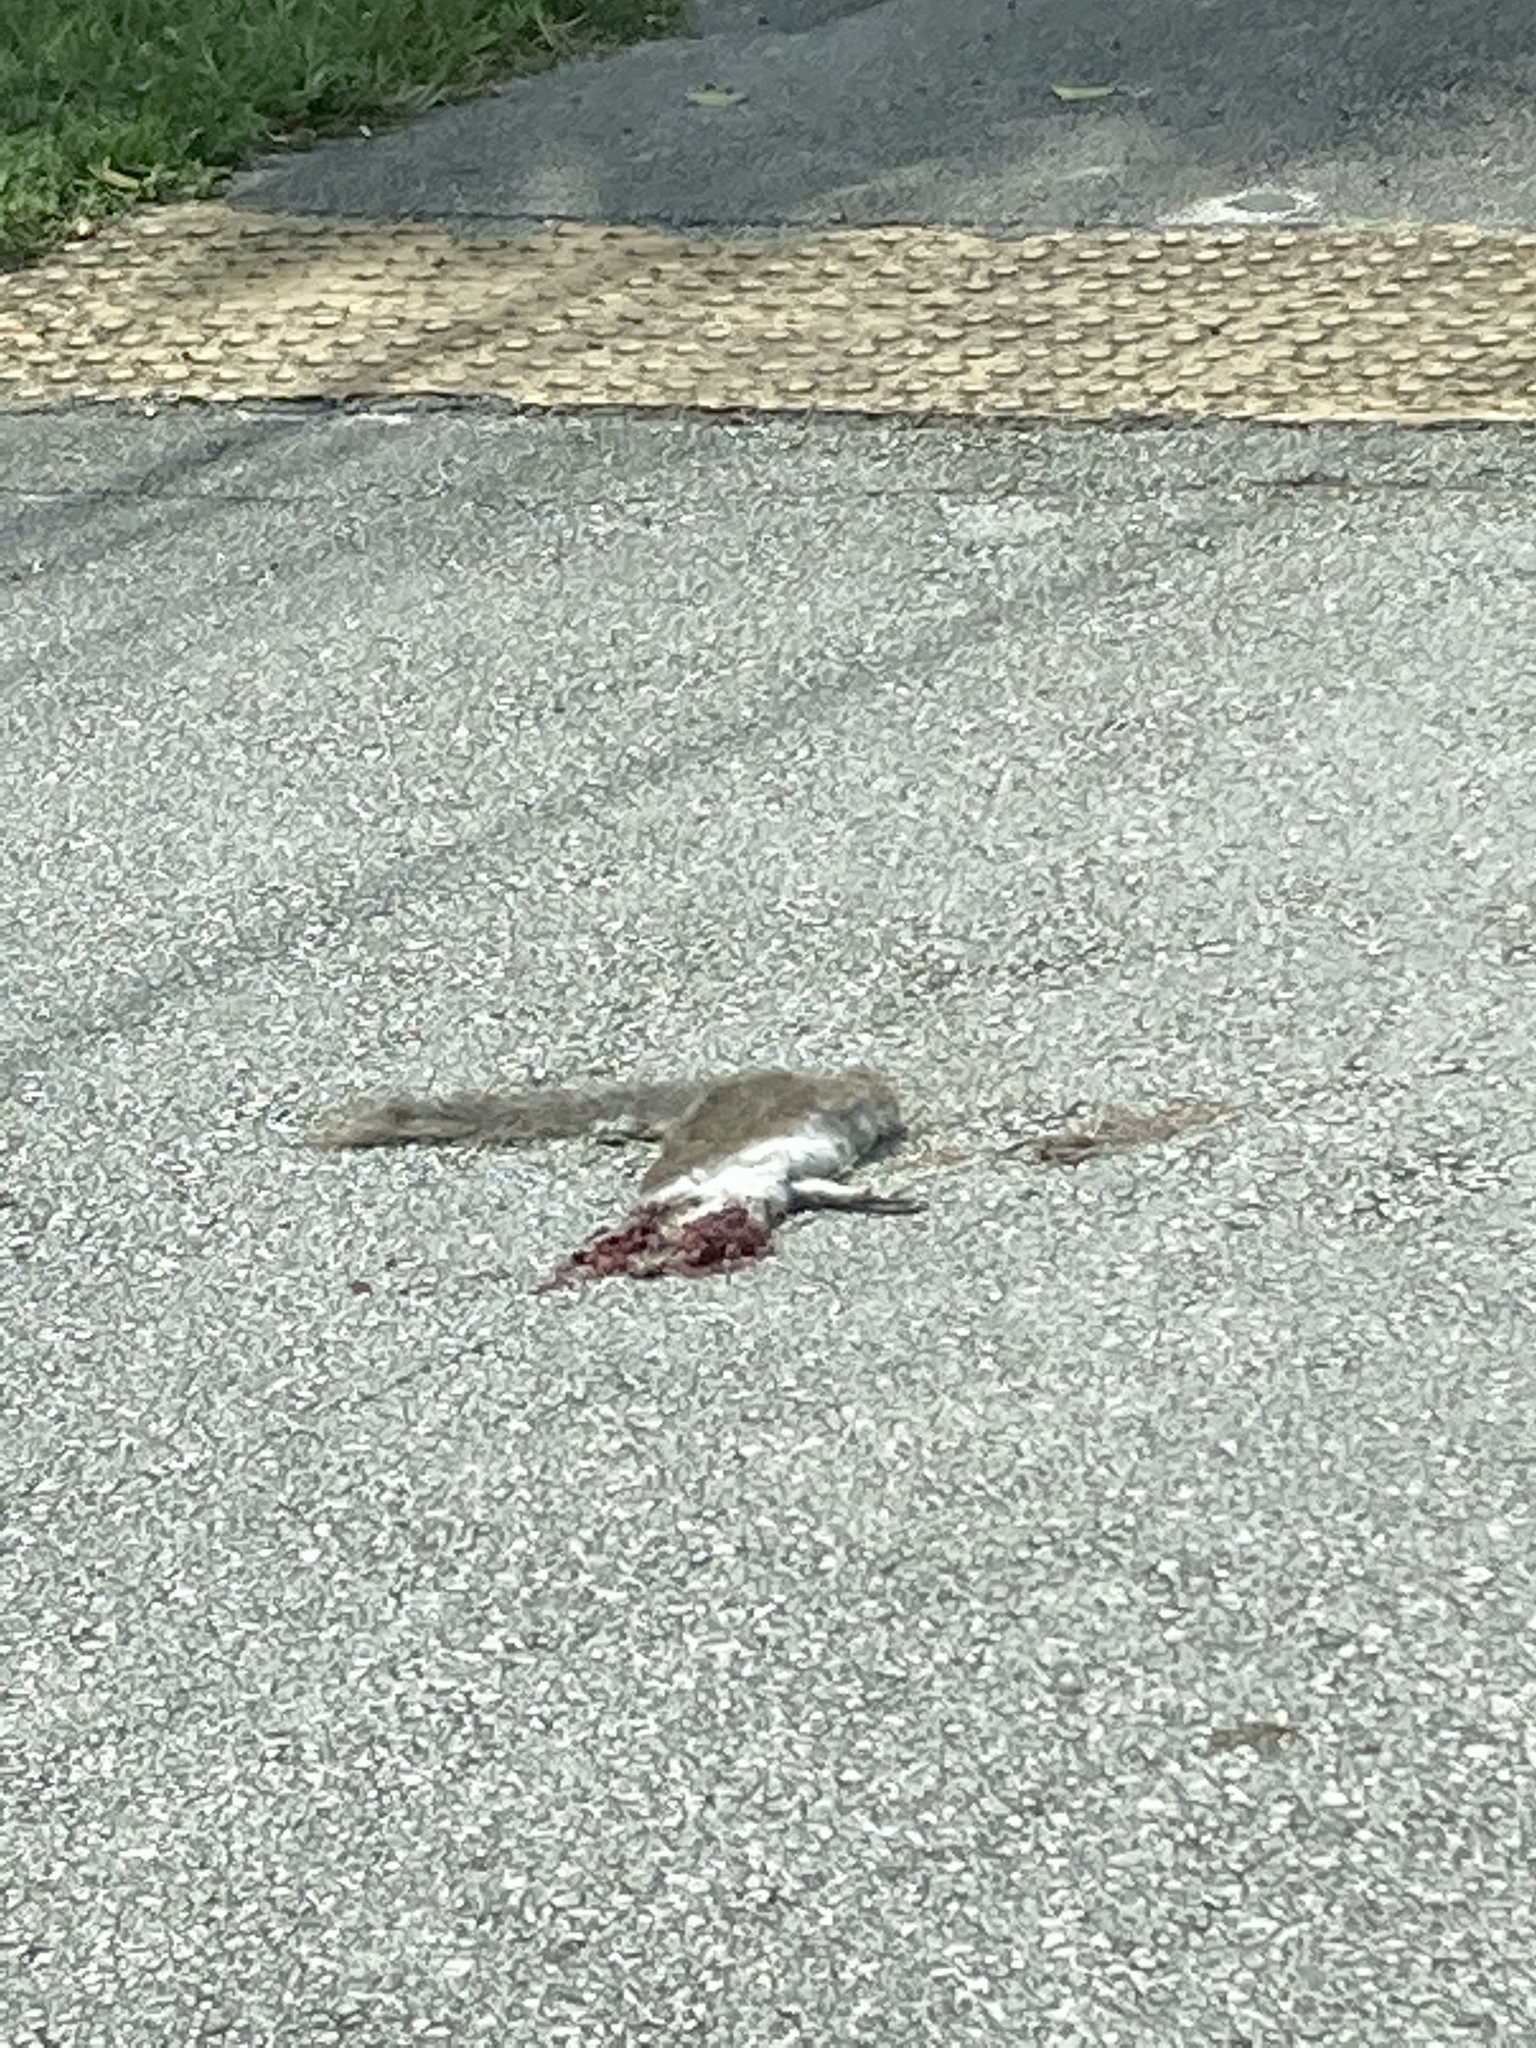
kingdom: Animalia
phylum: Chordata
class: Mammalia
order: Rodentia
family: Sciuridae
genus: Sciurus
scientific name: Sciurus carolinensis
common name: Eastern gray squirrel
